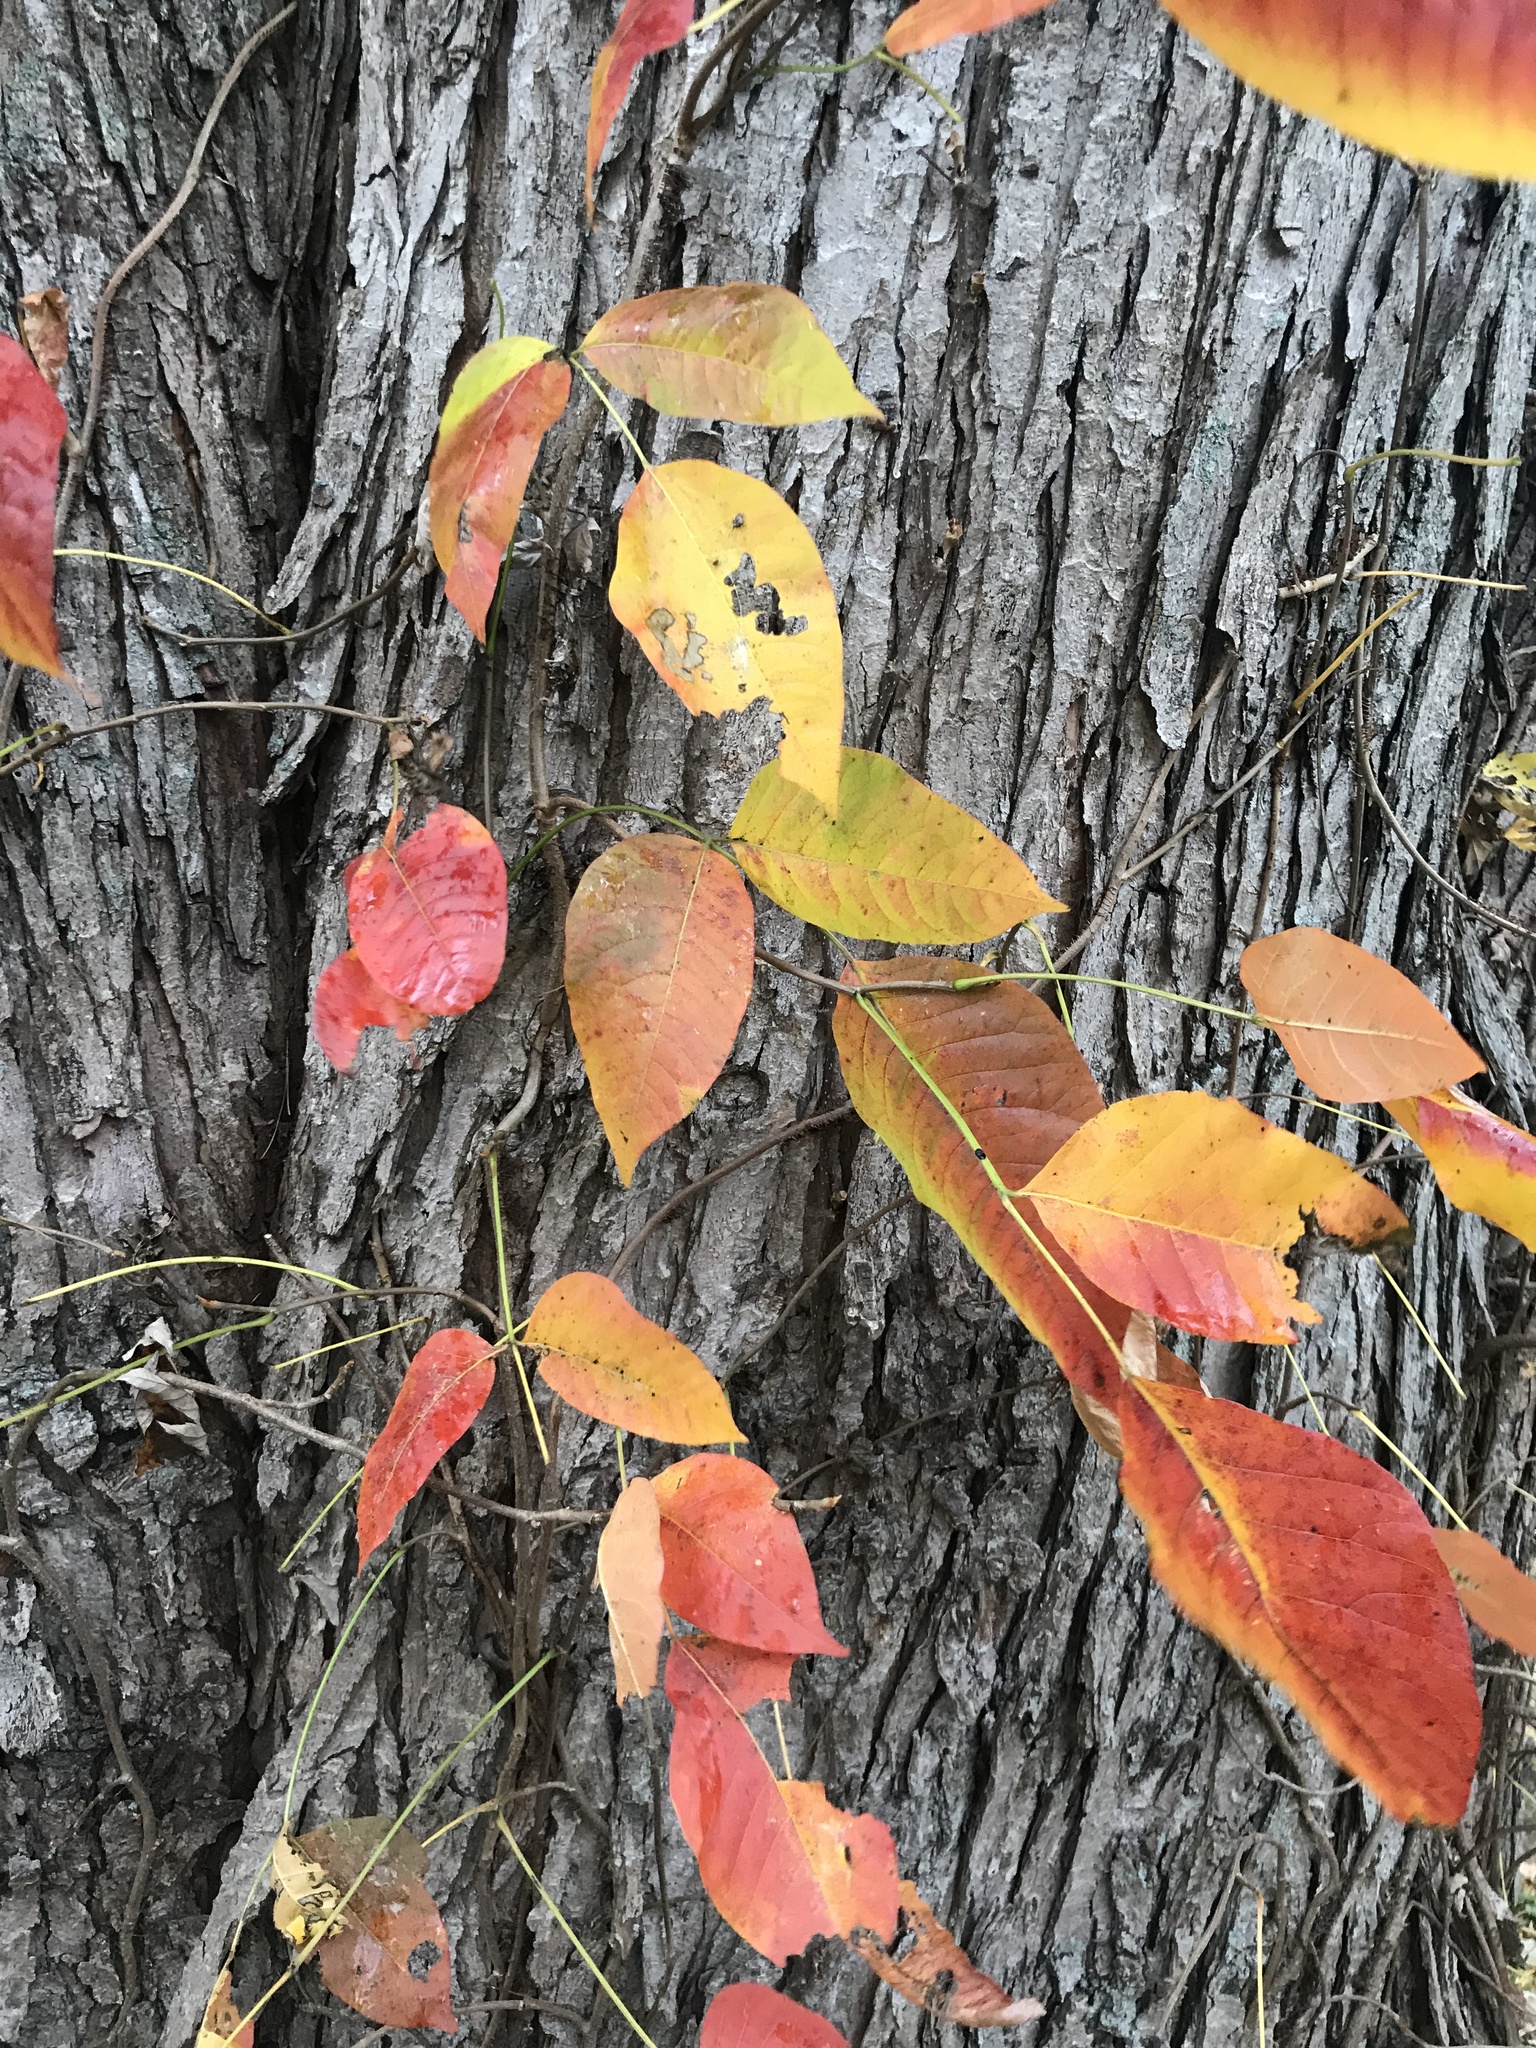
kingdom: Plantae
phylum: Tracheophyta
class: Magnoliopsida
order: Sapindales
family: Anacardiaceae
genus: Toxicodendron
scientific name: Toxicodendron radicans
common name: Poison ivy
